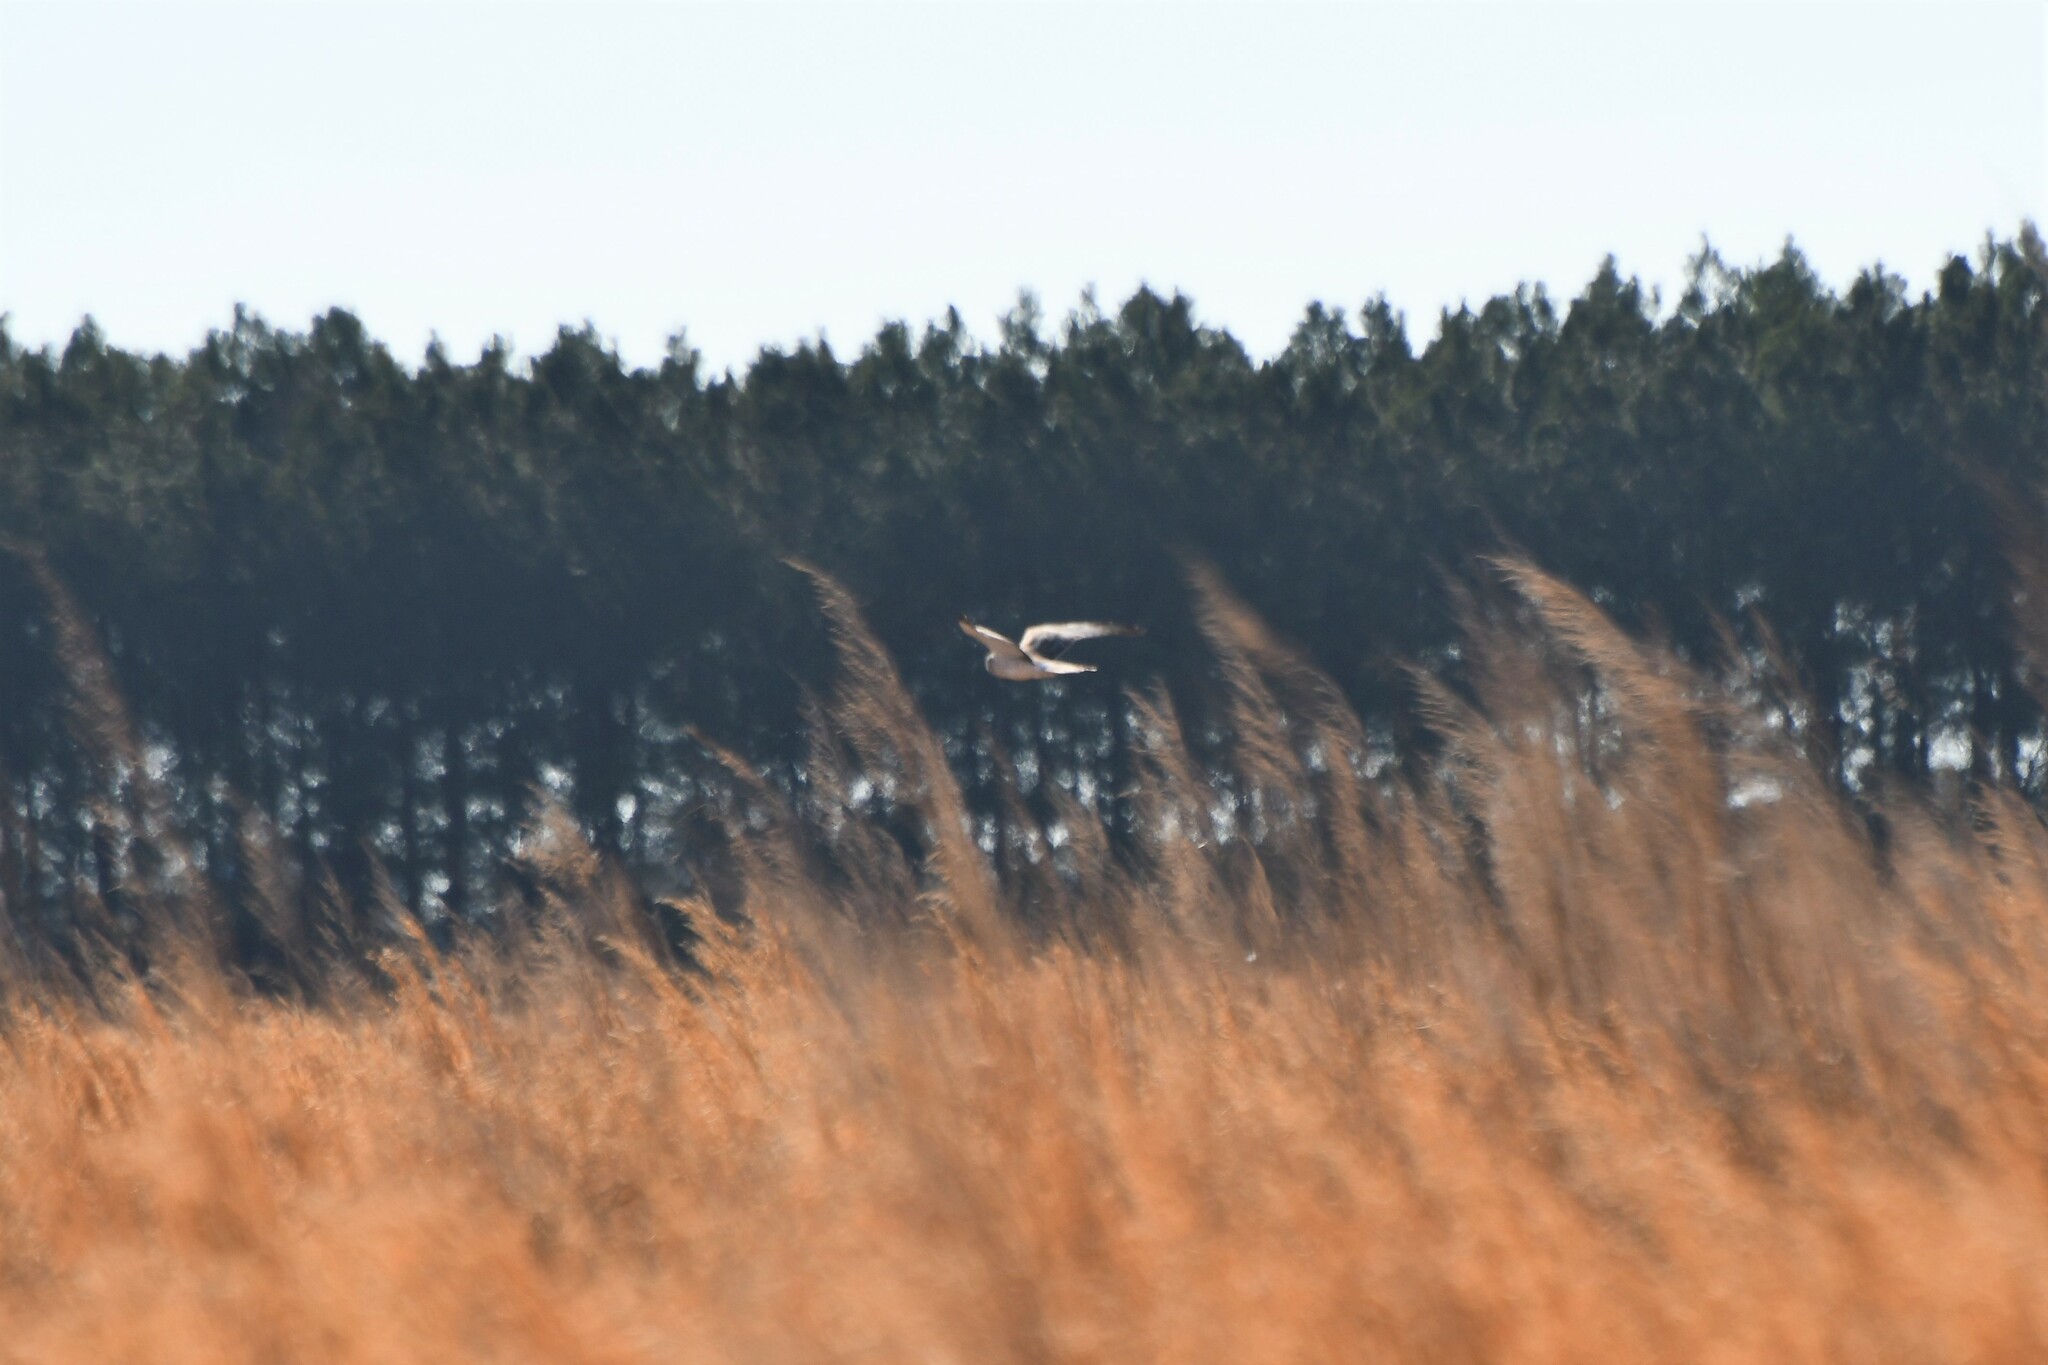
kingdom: Animalia
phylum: Chordata
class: Aves
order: Accipitriformes
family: Accipitridae
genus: Circus
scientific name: Circus cyaneus
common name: Hen harrier
